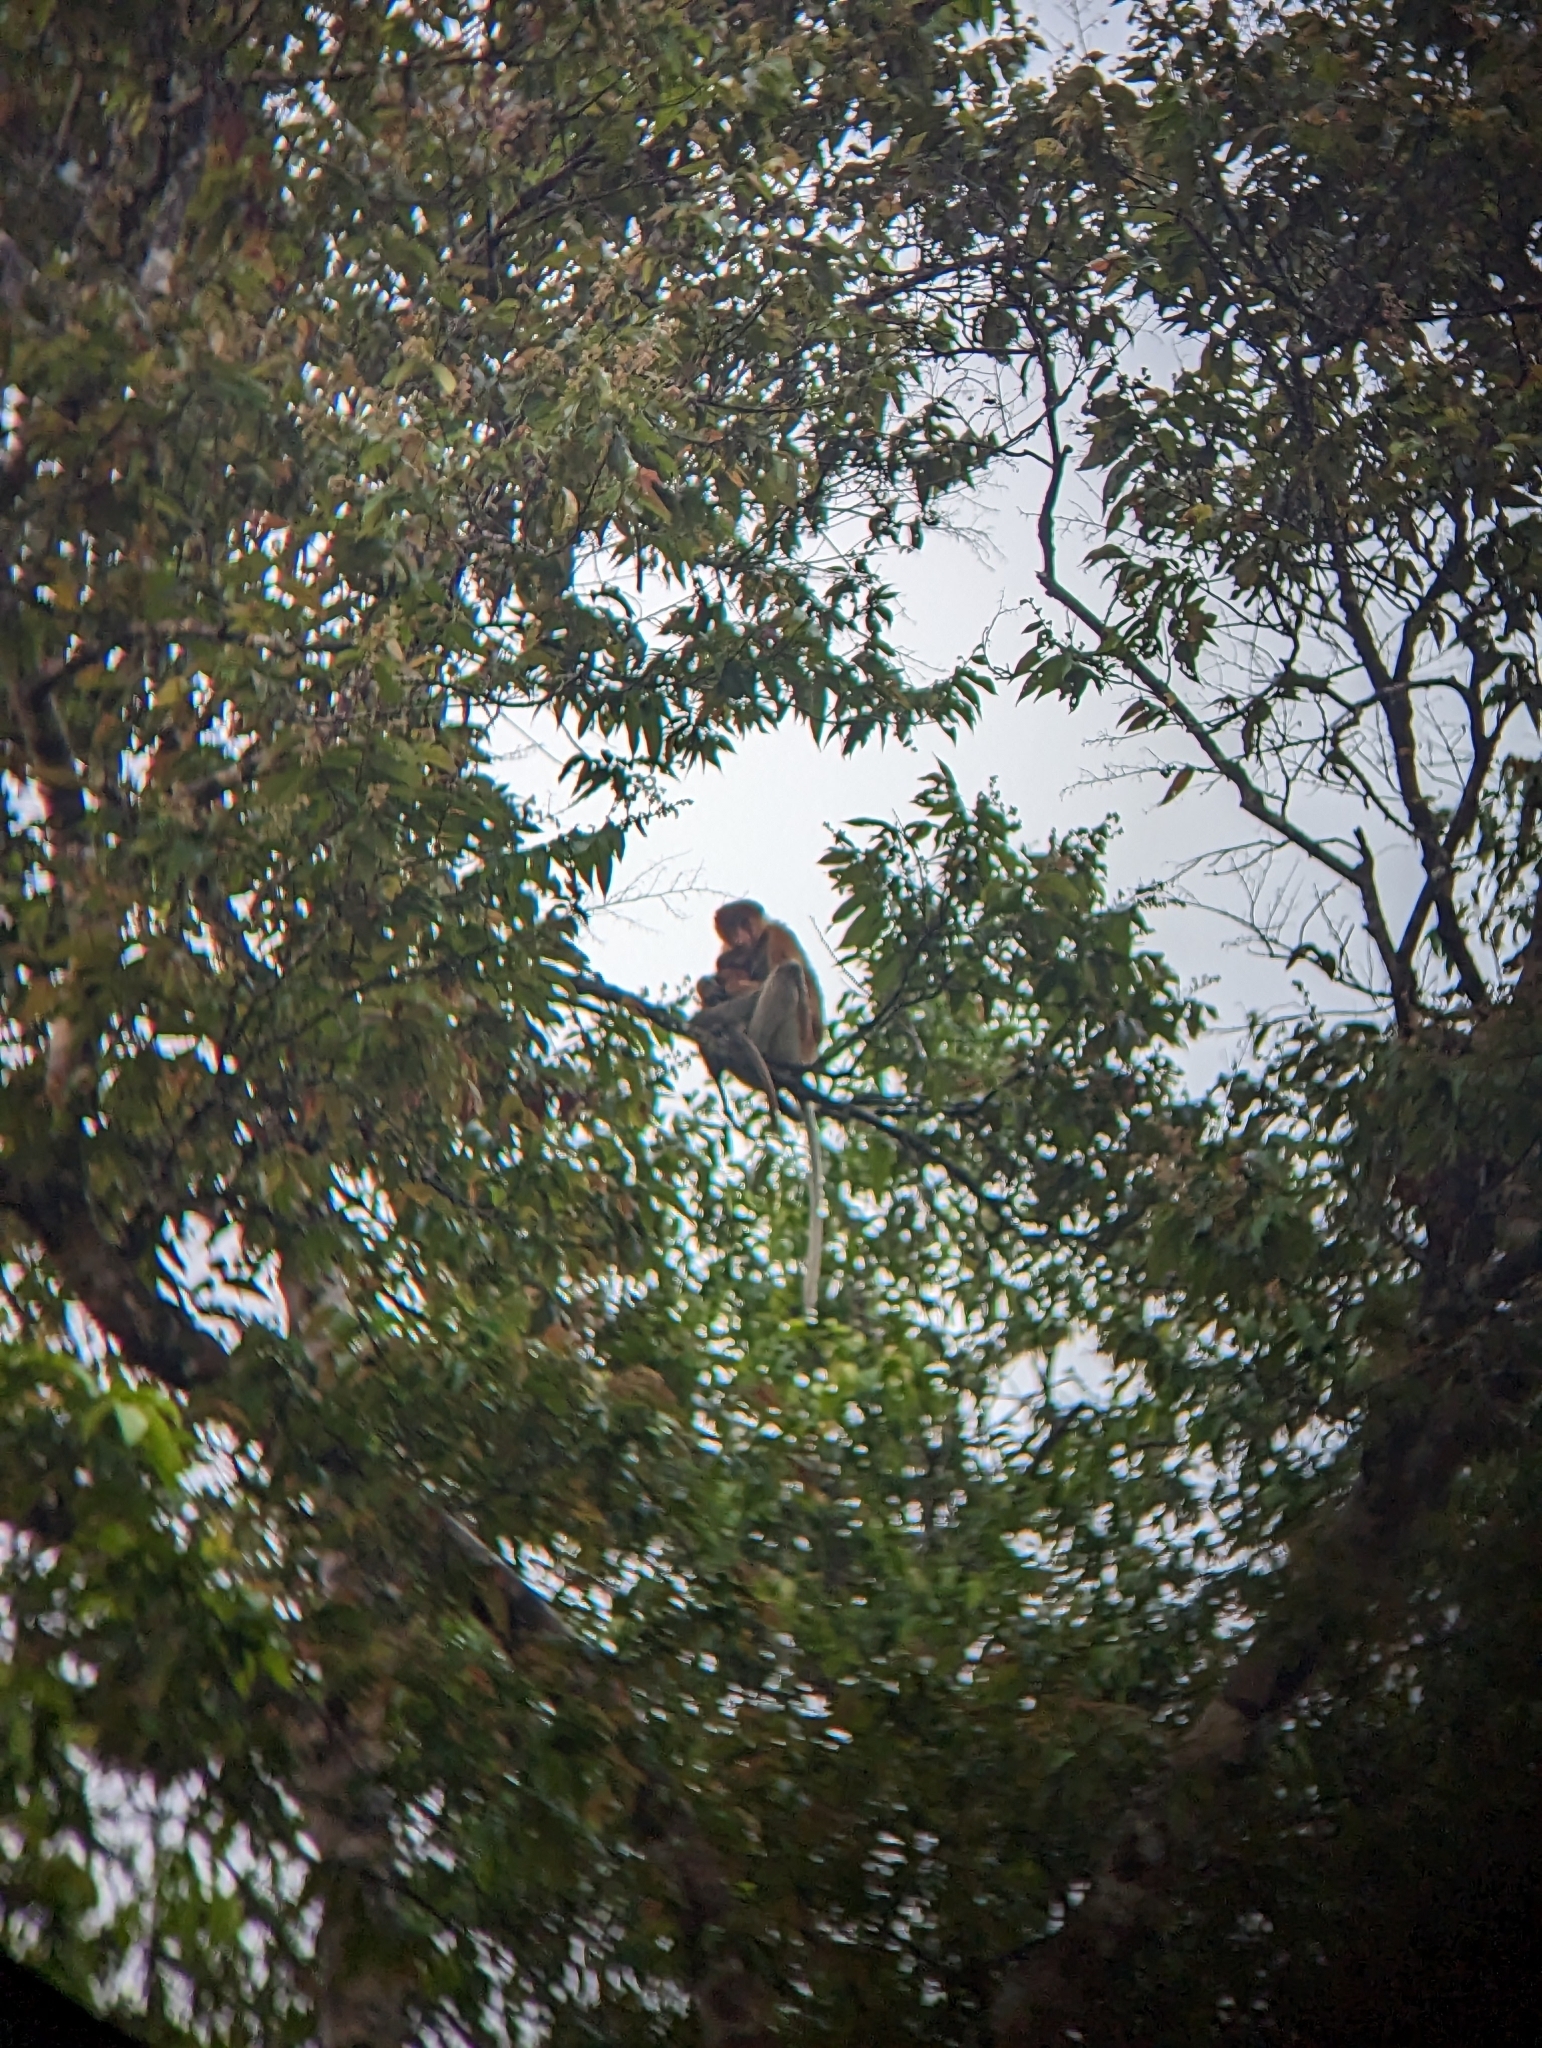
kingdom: Animalia
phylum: Chordata
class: Mammalia
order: Primates
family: Cercopithecidae
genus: Nasalis
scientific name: Nasalis larvatus
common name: Proboscis monkey
